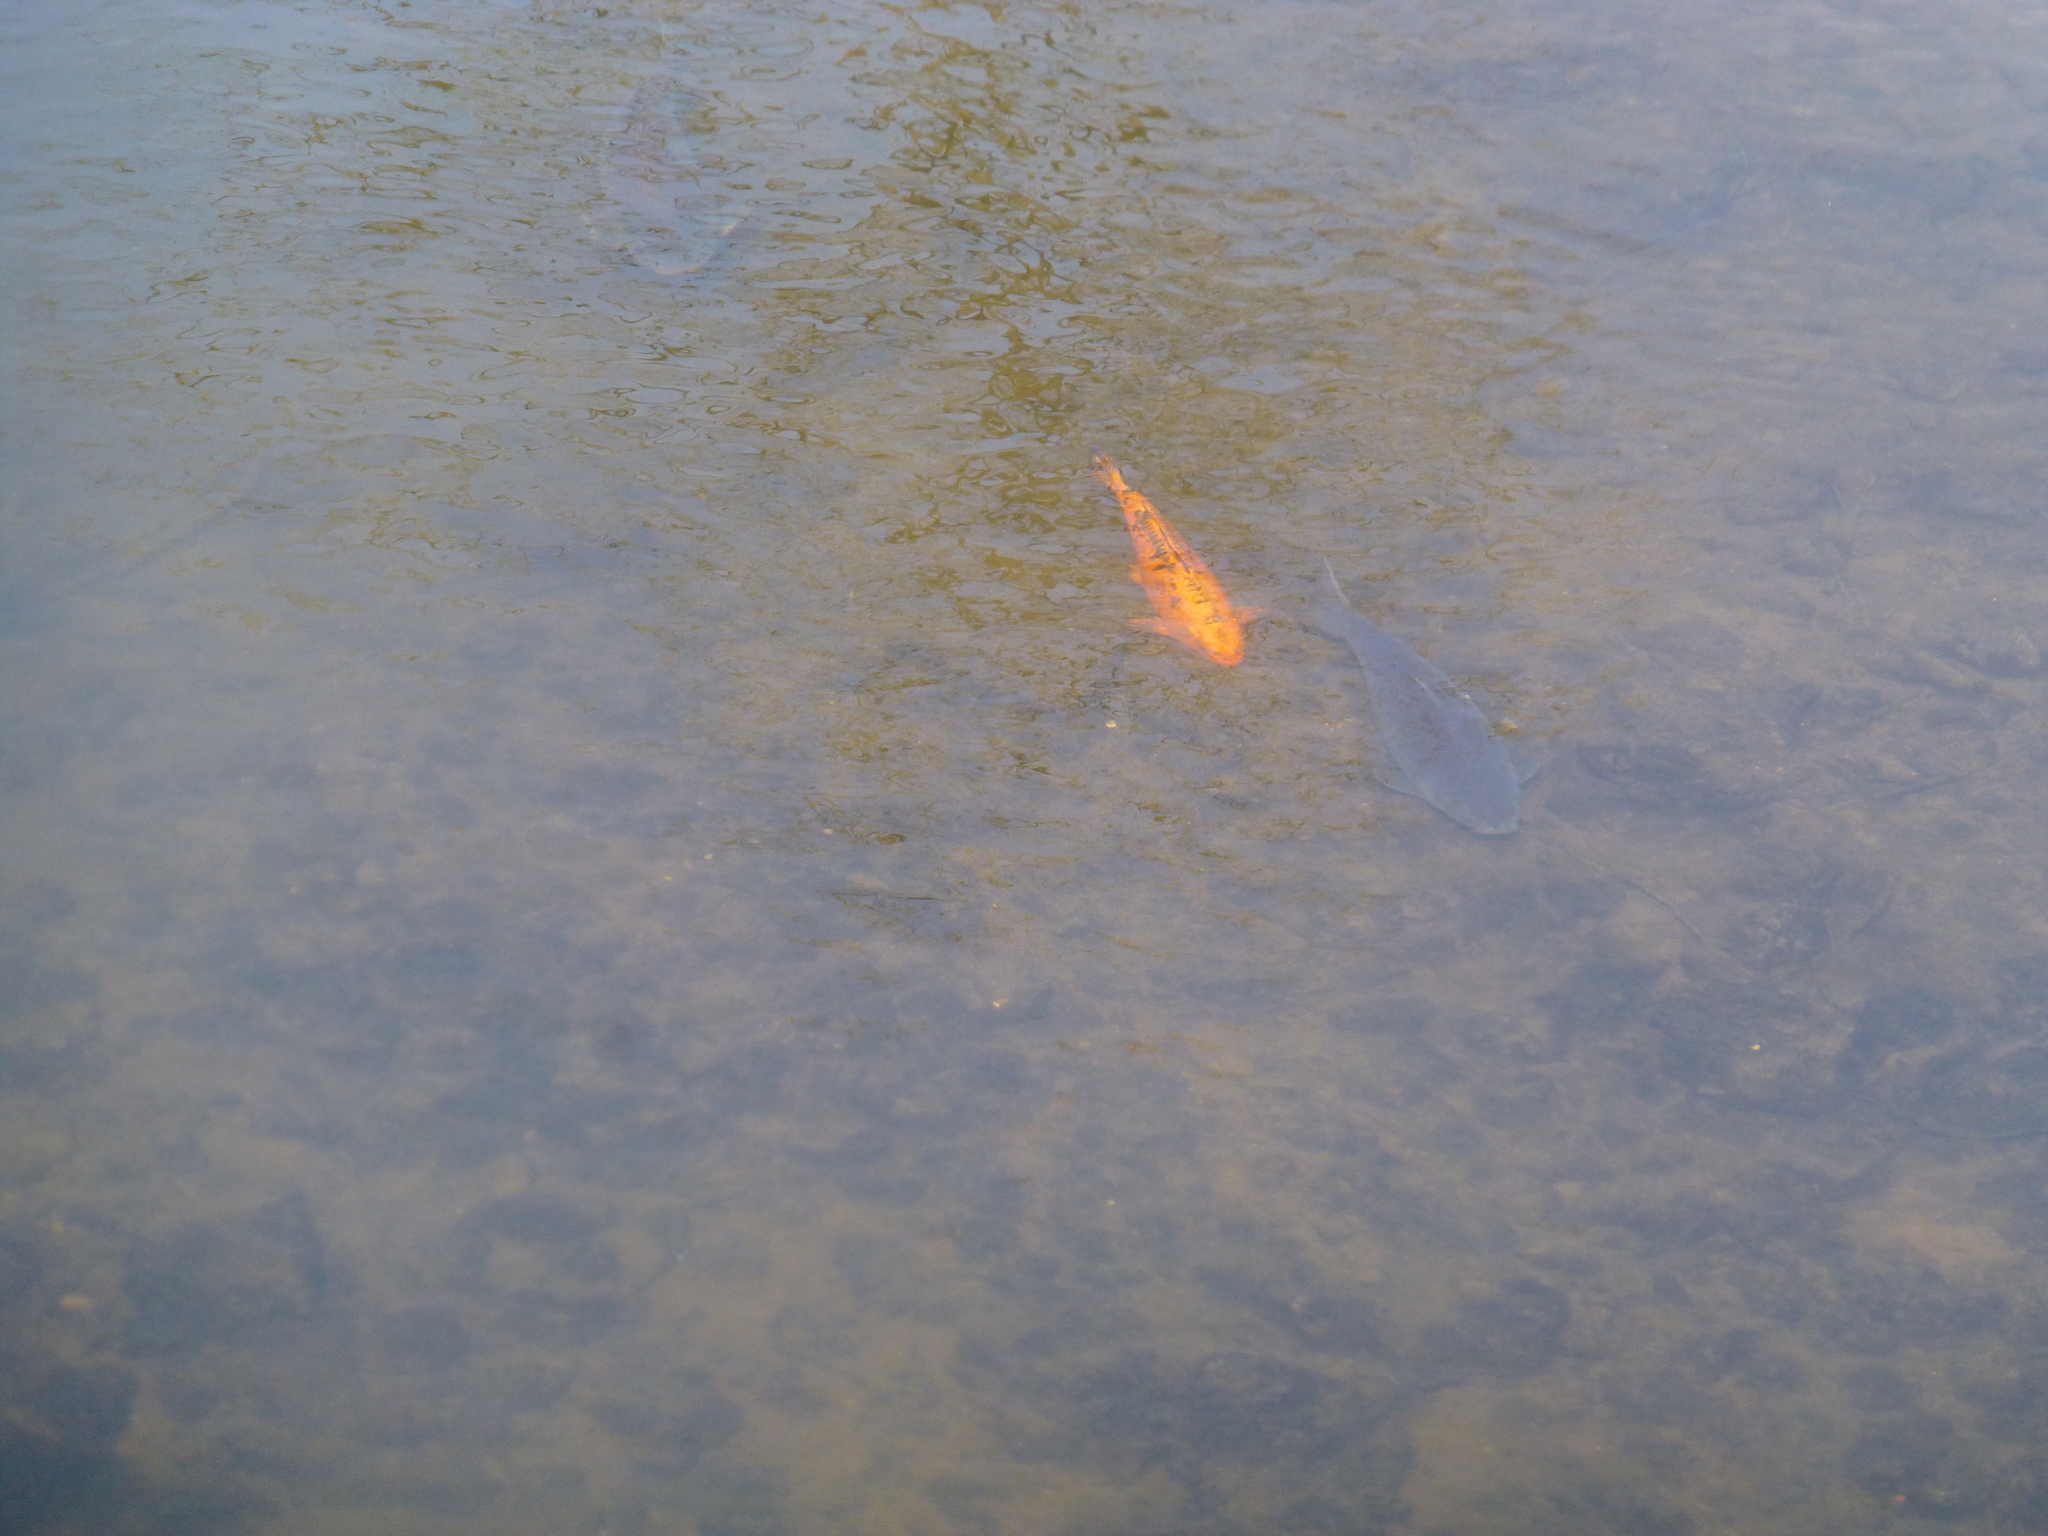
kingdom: Animalia
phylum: Chordata
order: Cypriniformes
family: Cyprinidae
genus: Cyprinus
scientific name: Cyprinus rubrofuscus
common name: Koi
